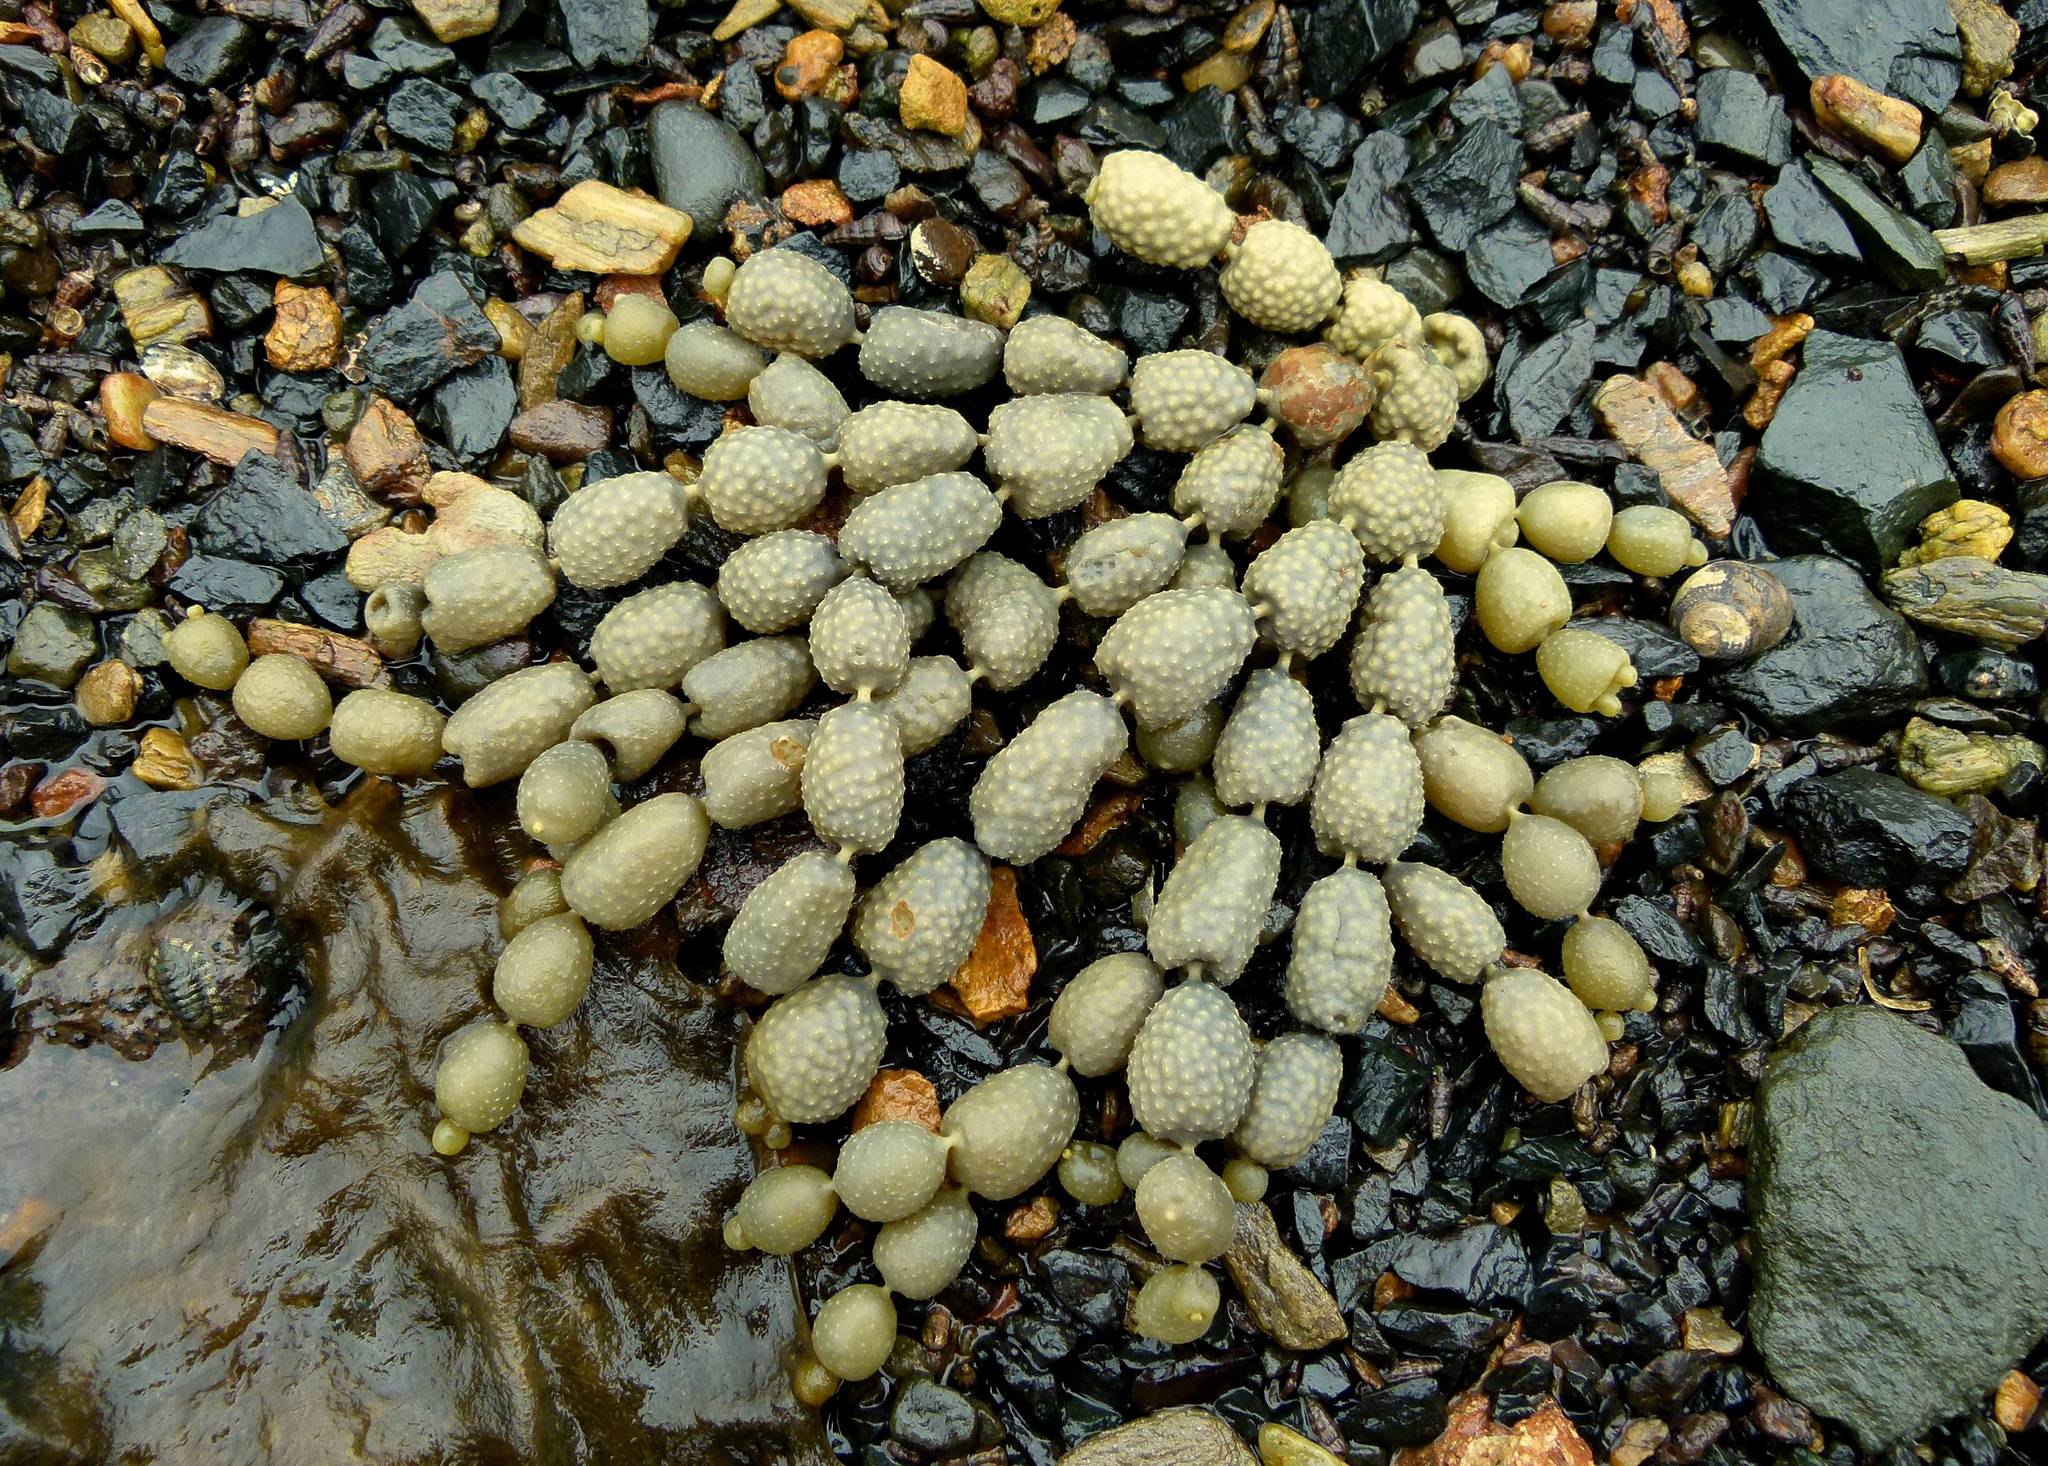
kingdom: Chromista
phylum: Ochrophyta
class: Phaeophyceae
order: Fucales
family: Hormosiraceae
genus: Hormosira
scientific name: Hormosira banksii
